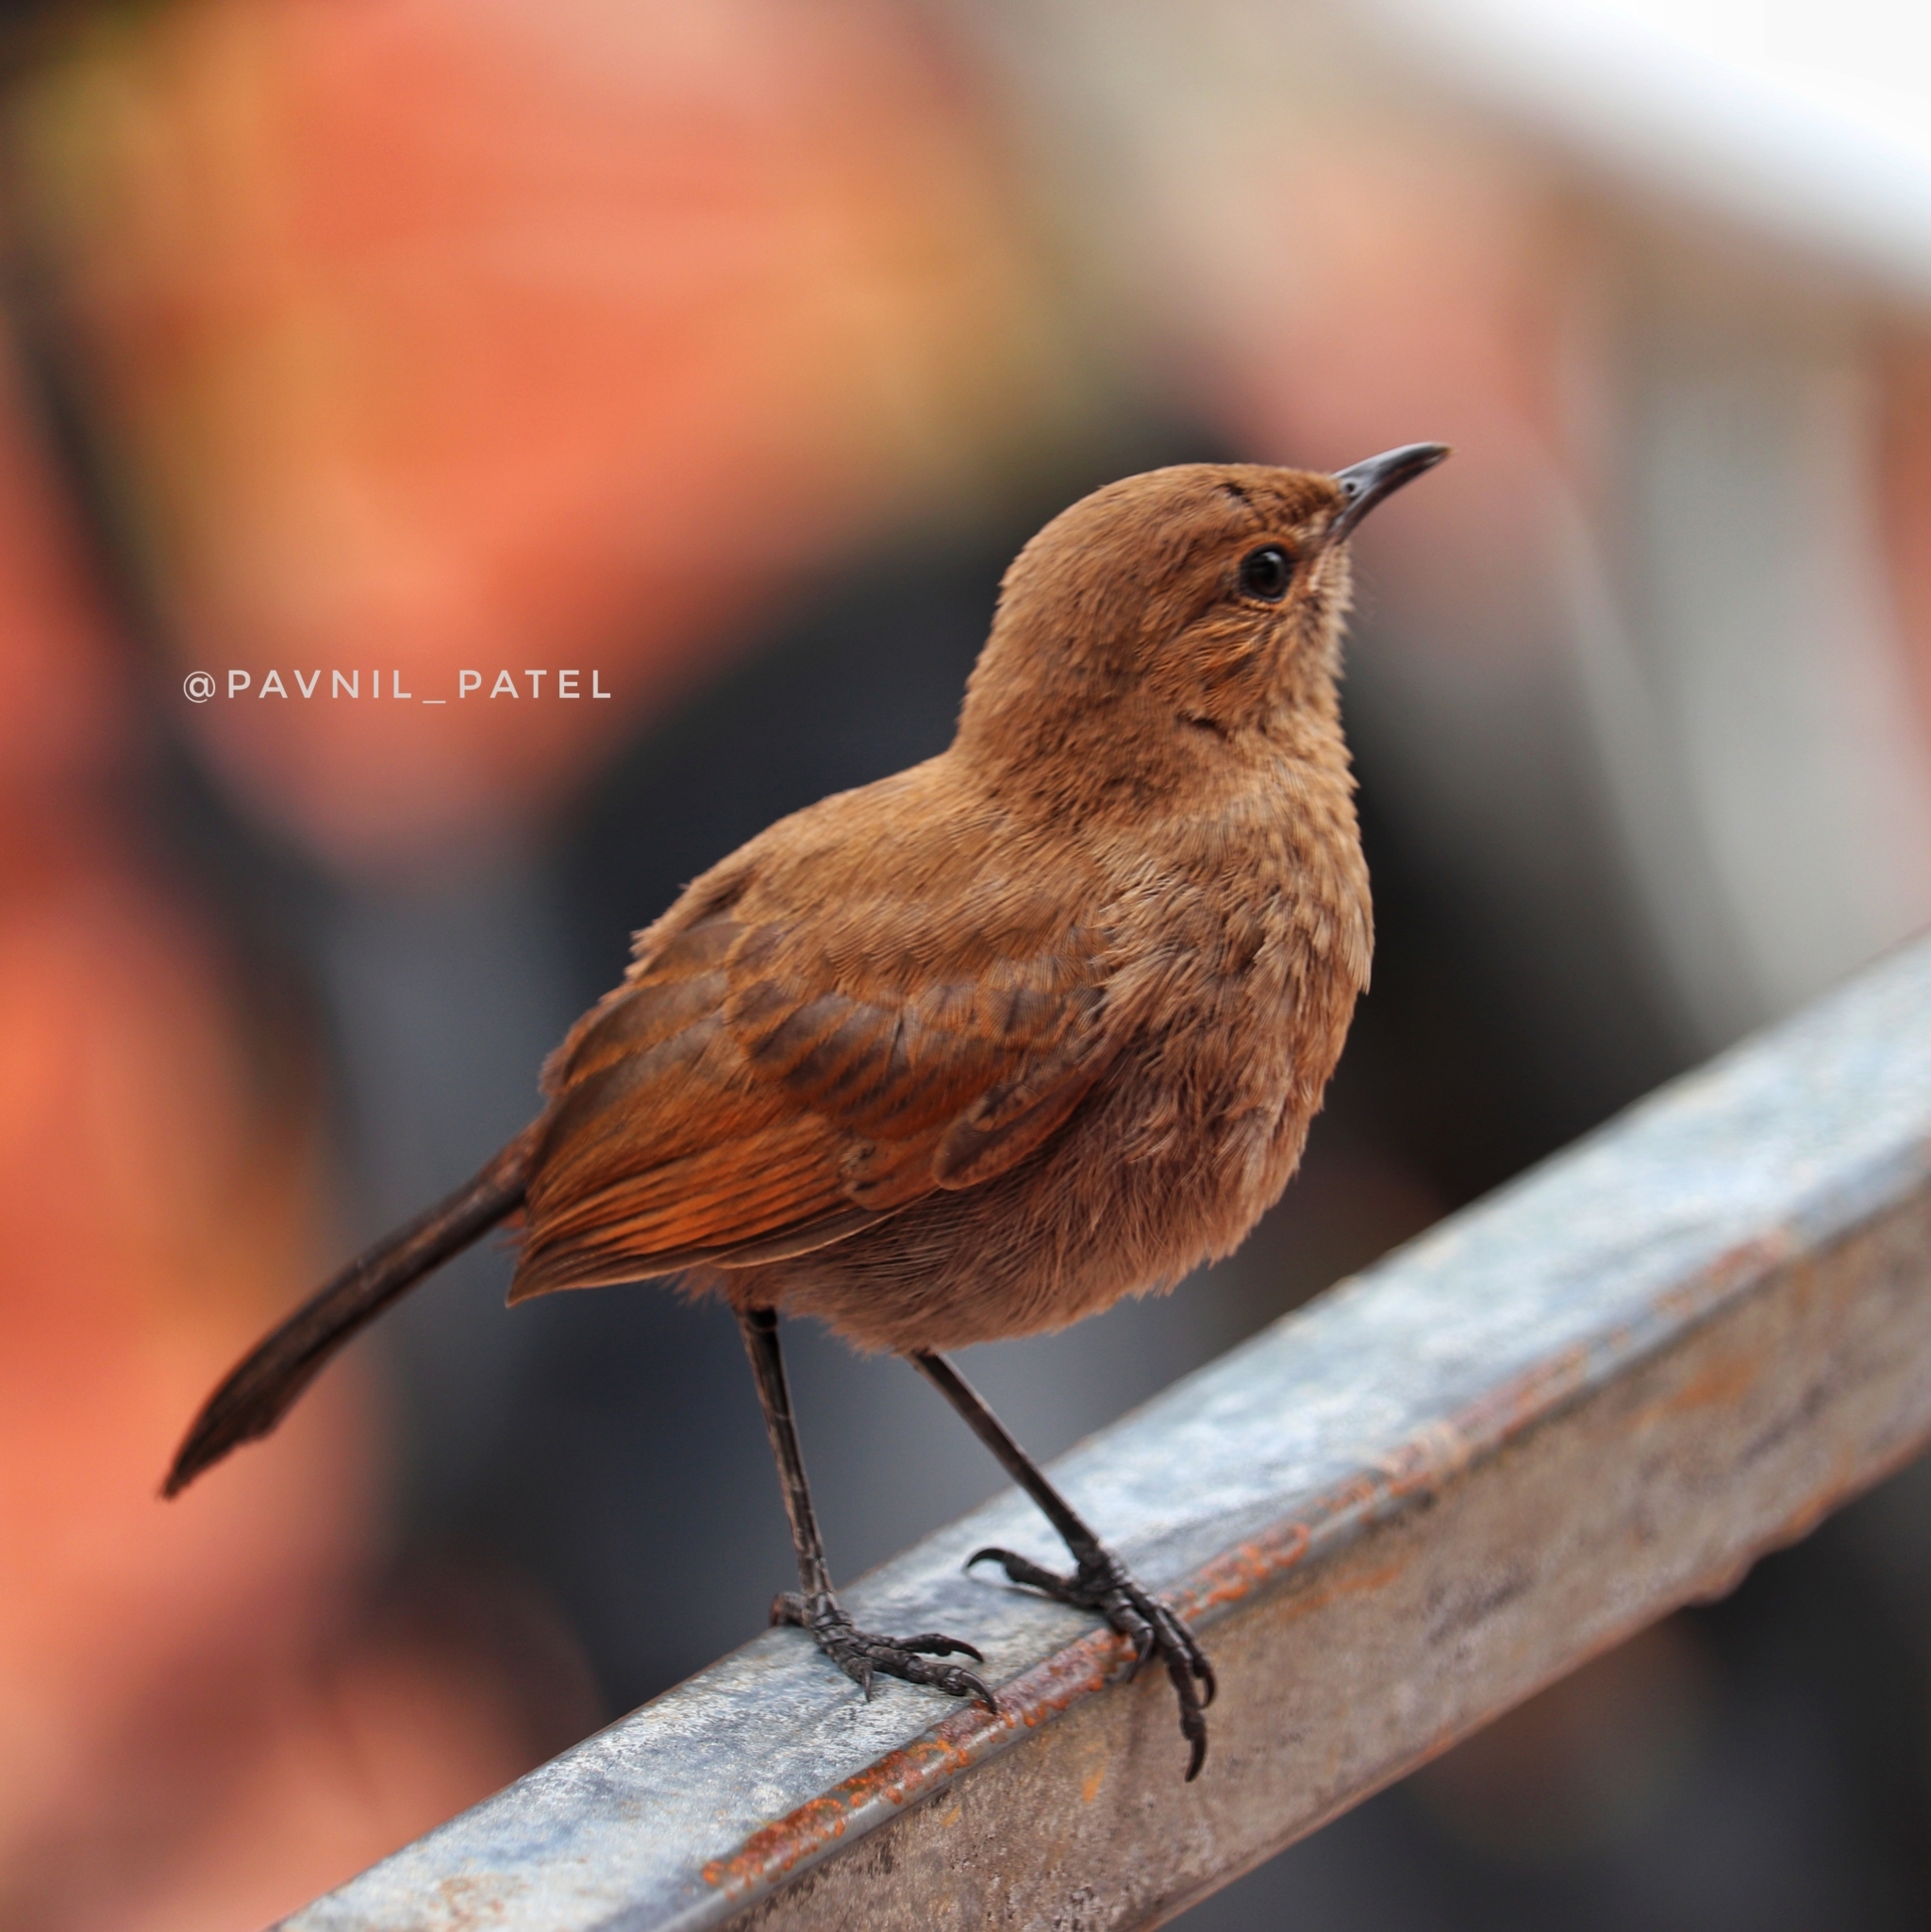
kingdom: Animalia
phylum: Chordata
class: Aves
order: Passeriformes
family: Muscicapidae
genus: Saxicoloides
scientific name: Saxicoloides fulicatus
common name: Indian robin
